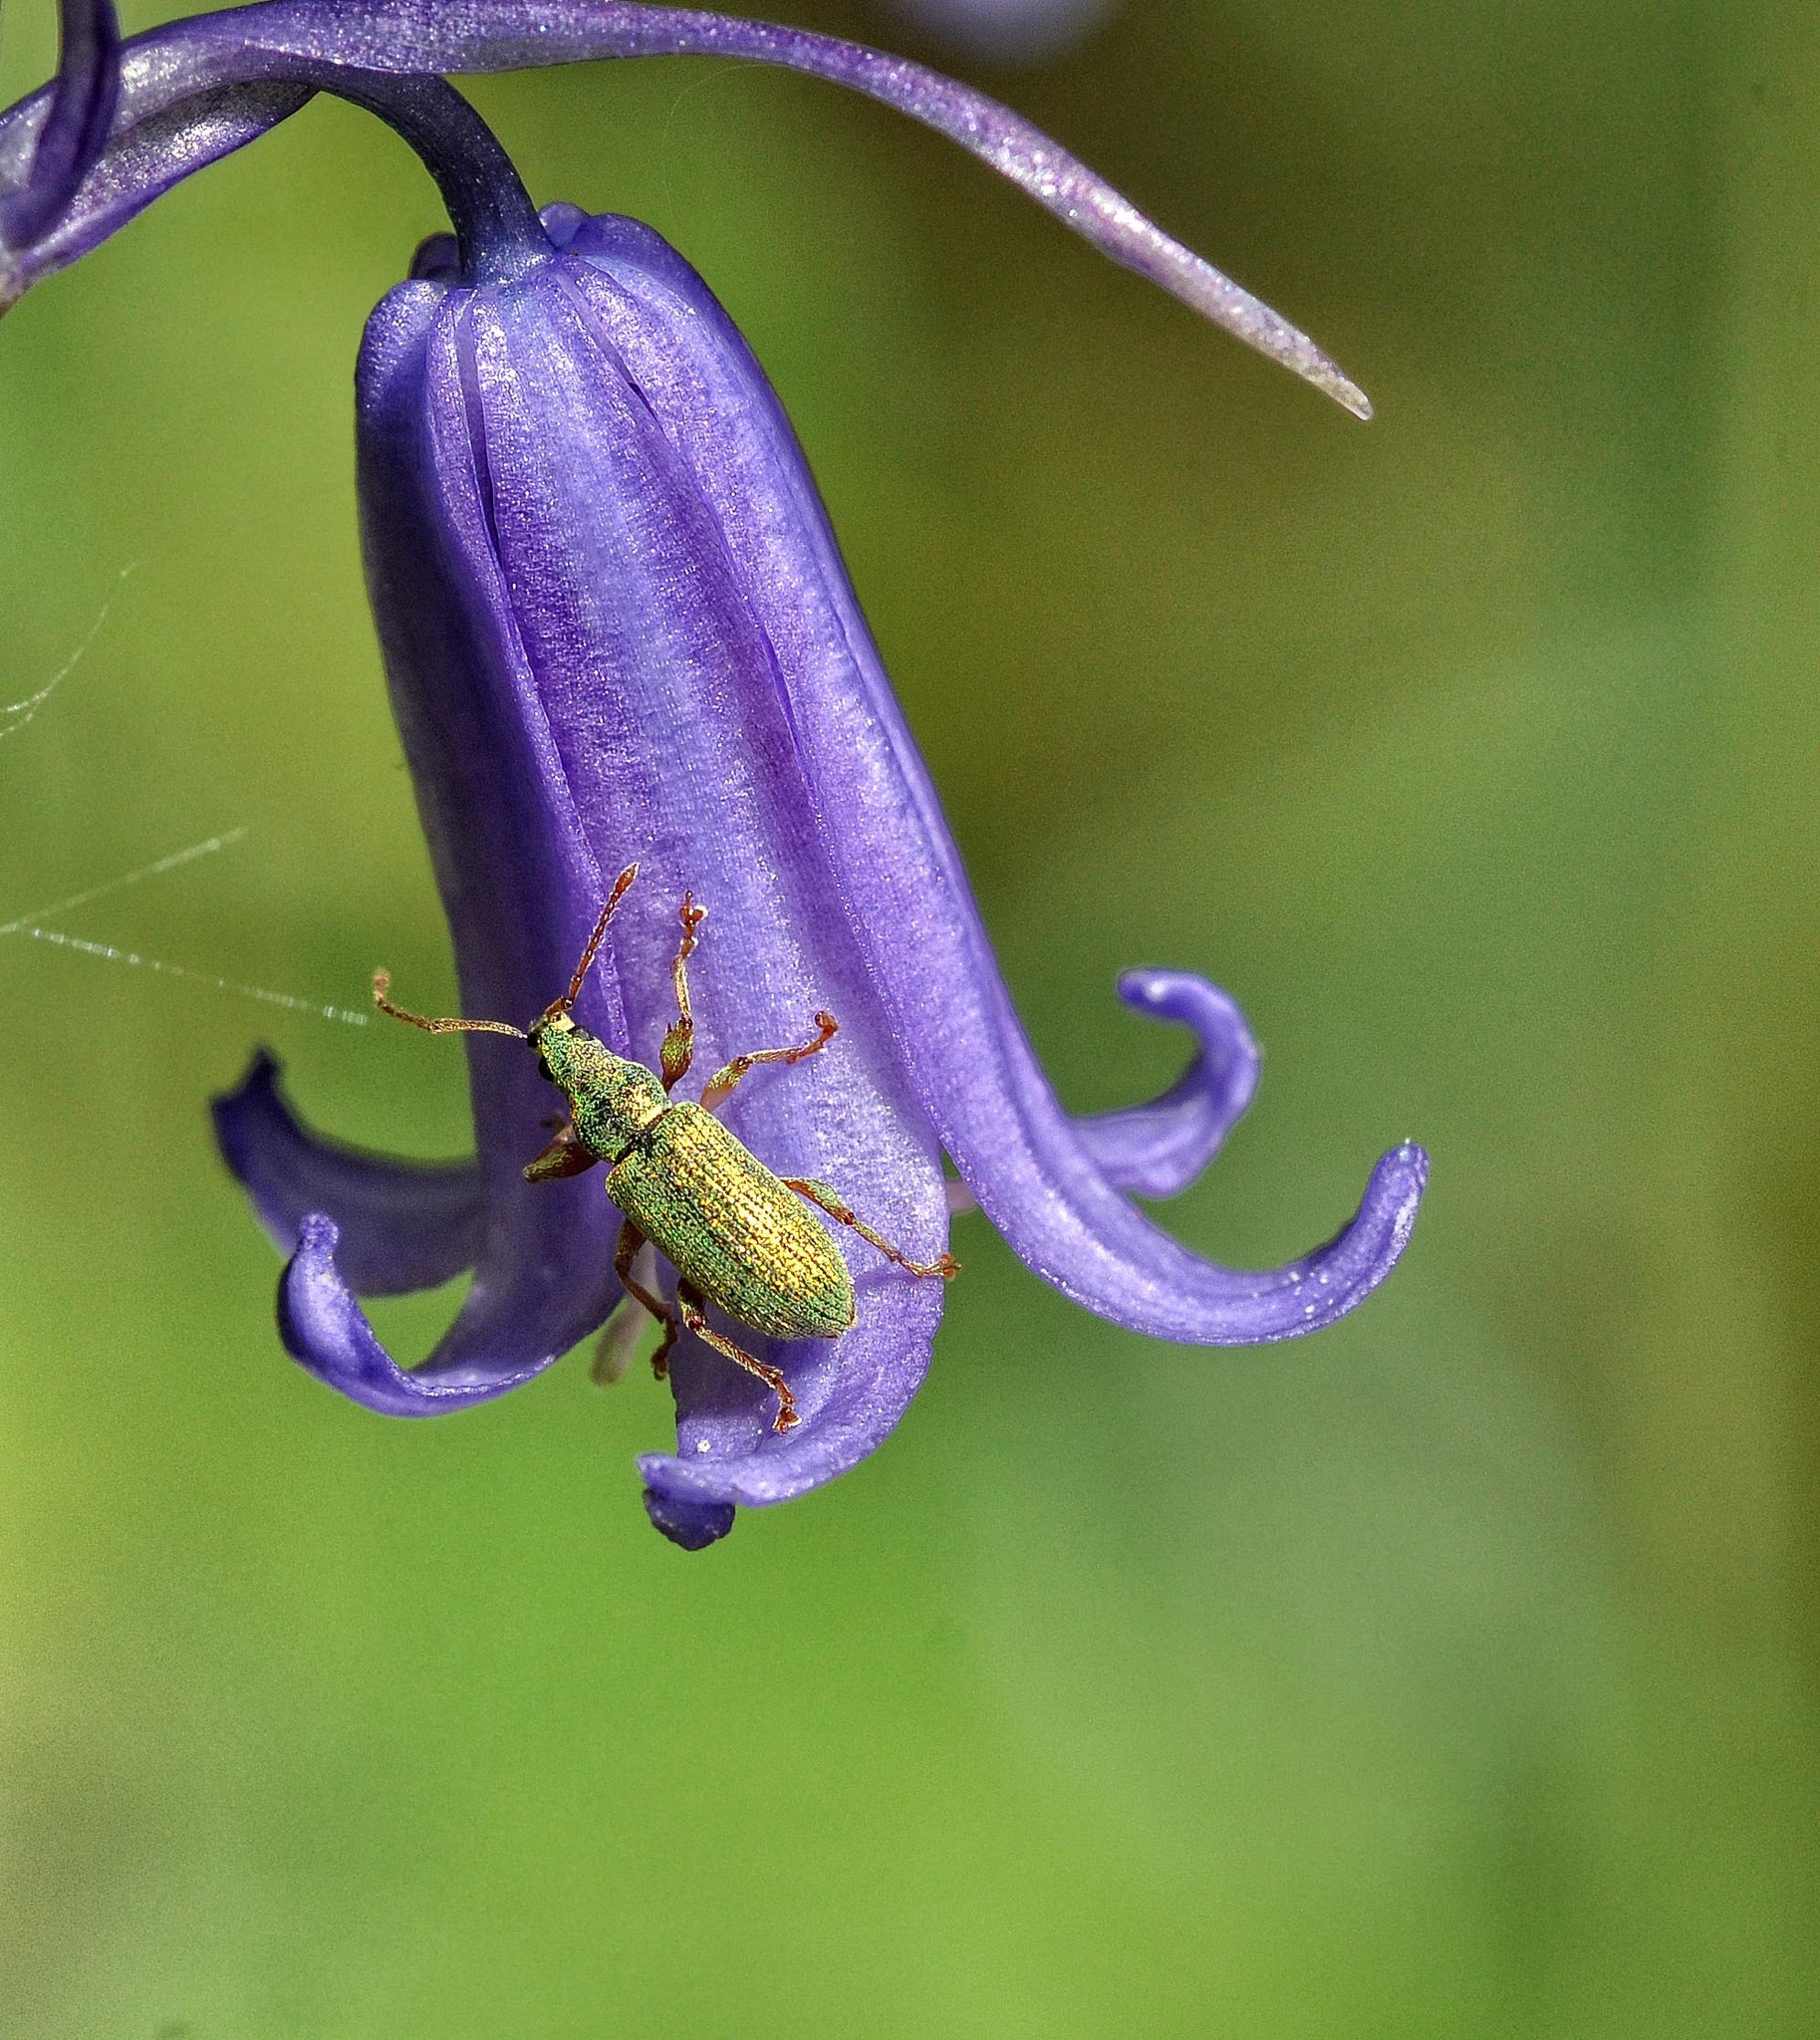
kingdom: Animalia
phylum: Arthropoda
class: Insecta
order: Coleoptera
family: Curculionidae
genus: Phyllobius
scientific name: Phyllobius argentatus
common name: Silver-green leaf weevil
